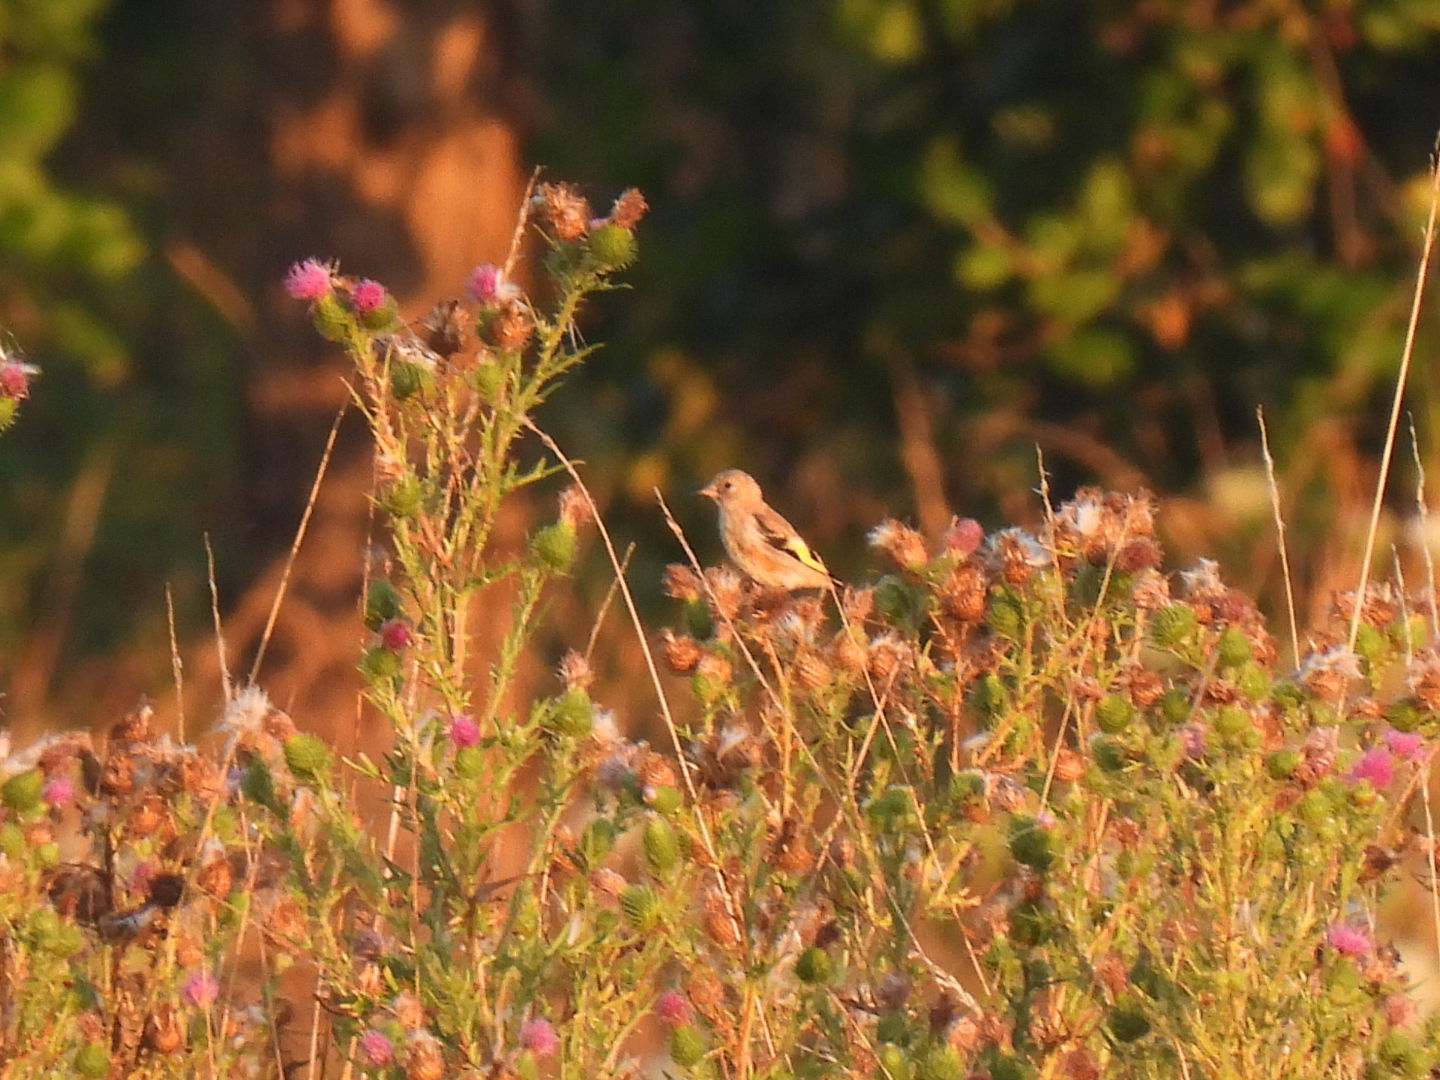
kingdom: Animalia
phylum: Chordata
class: Aves
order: Passeriformes
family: Fringillidae
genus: Carduelis
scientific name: Carduelis carduelis
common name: European goldfinch
